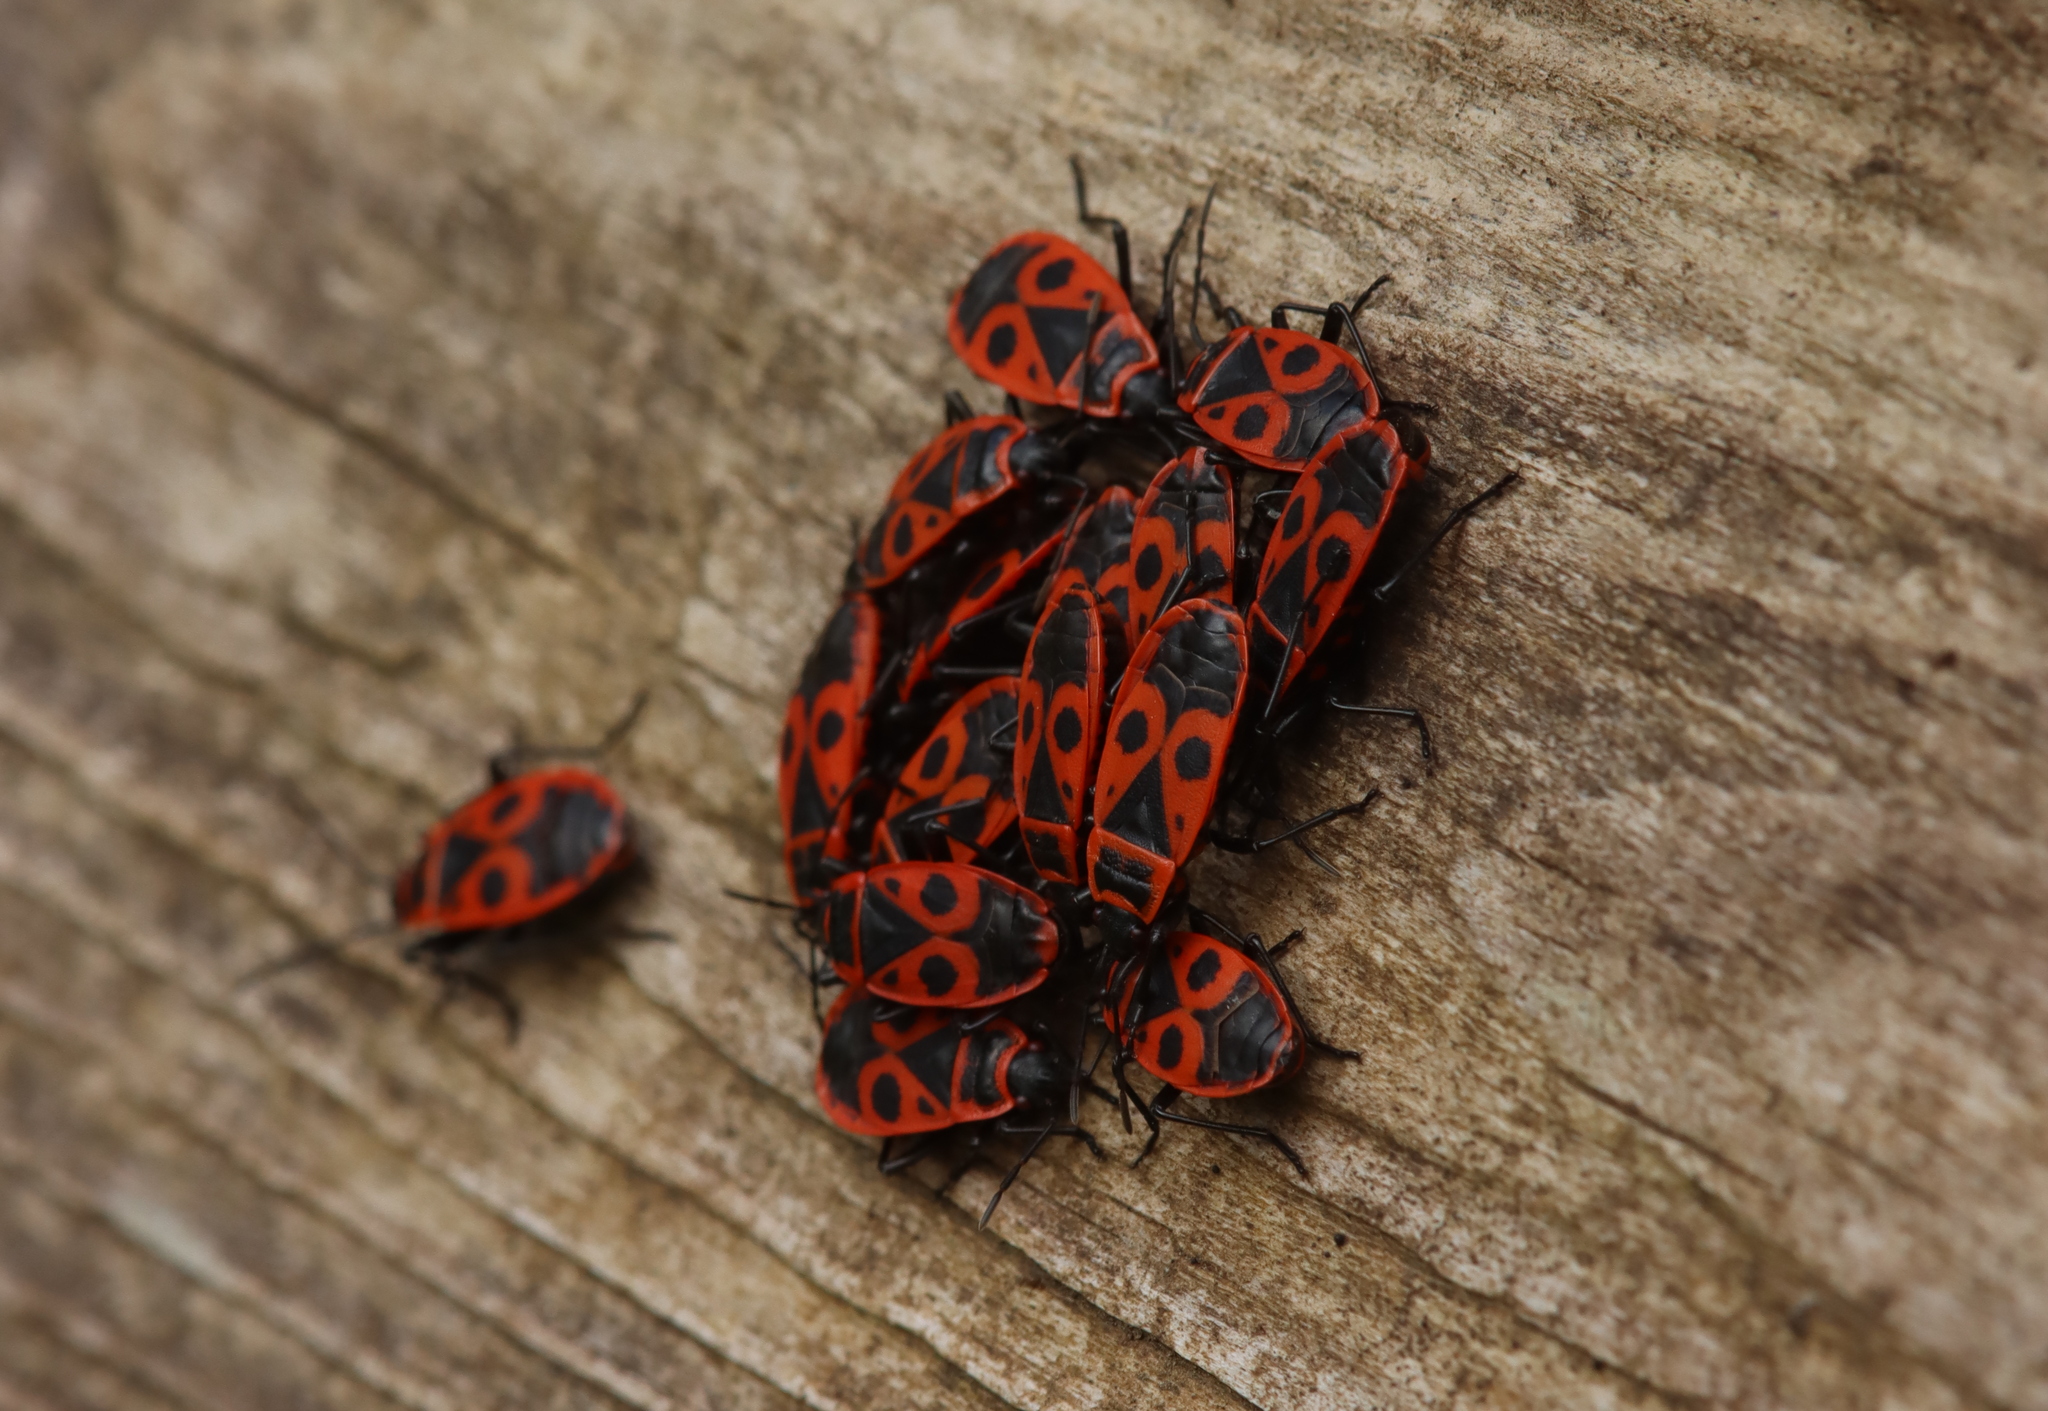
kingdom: Animalia
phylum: Arthropoda
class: Insecta
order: Hemiptera
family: Pyrrhocoridae
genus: Pyrrhocoris
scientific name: Pyrrhocoris apterus
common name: Firebug
